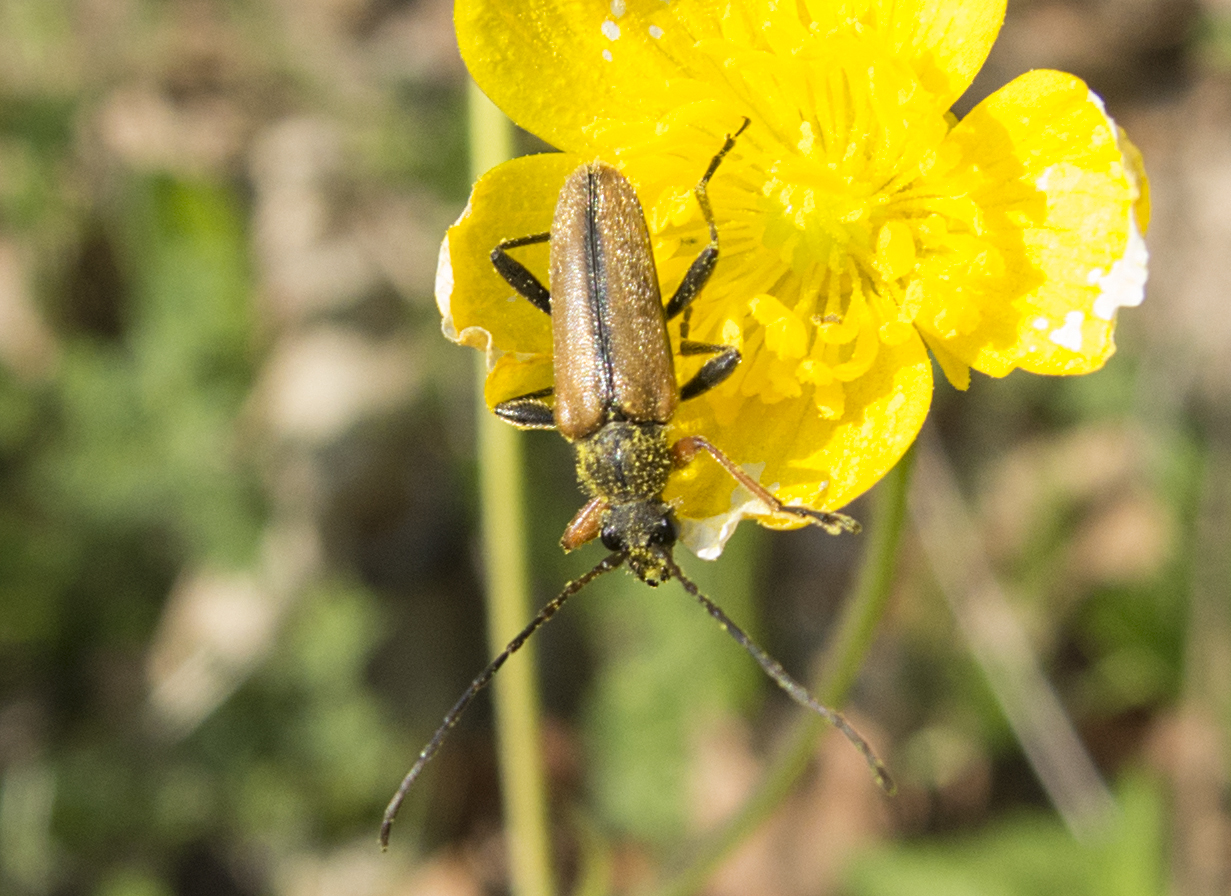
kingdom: Animalia
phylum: Arthropoda
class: Insecta
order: Coleoptera
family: Cerambycidae
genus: Cortodera
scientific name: Cortodera flavimana
